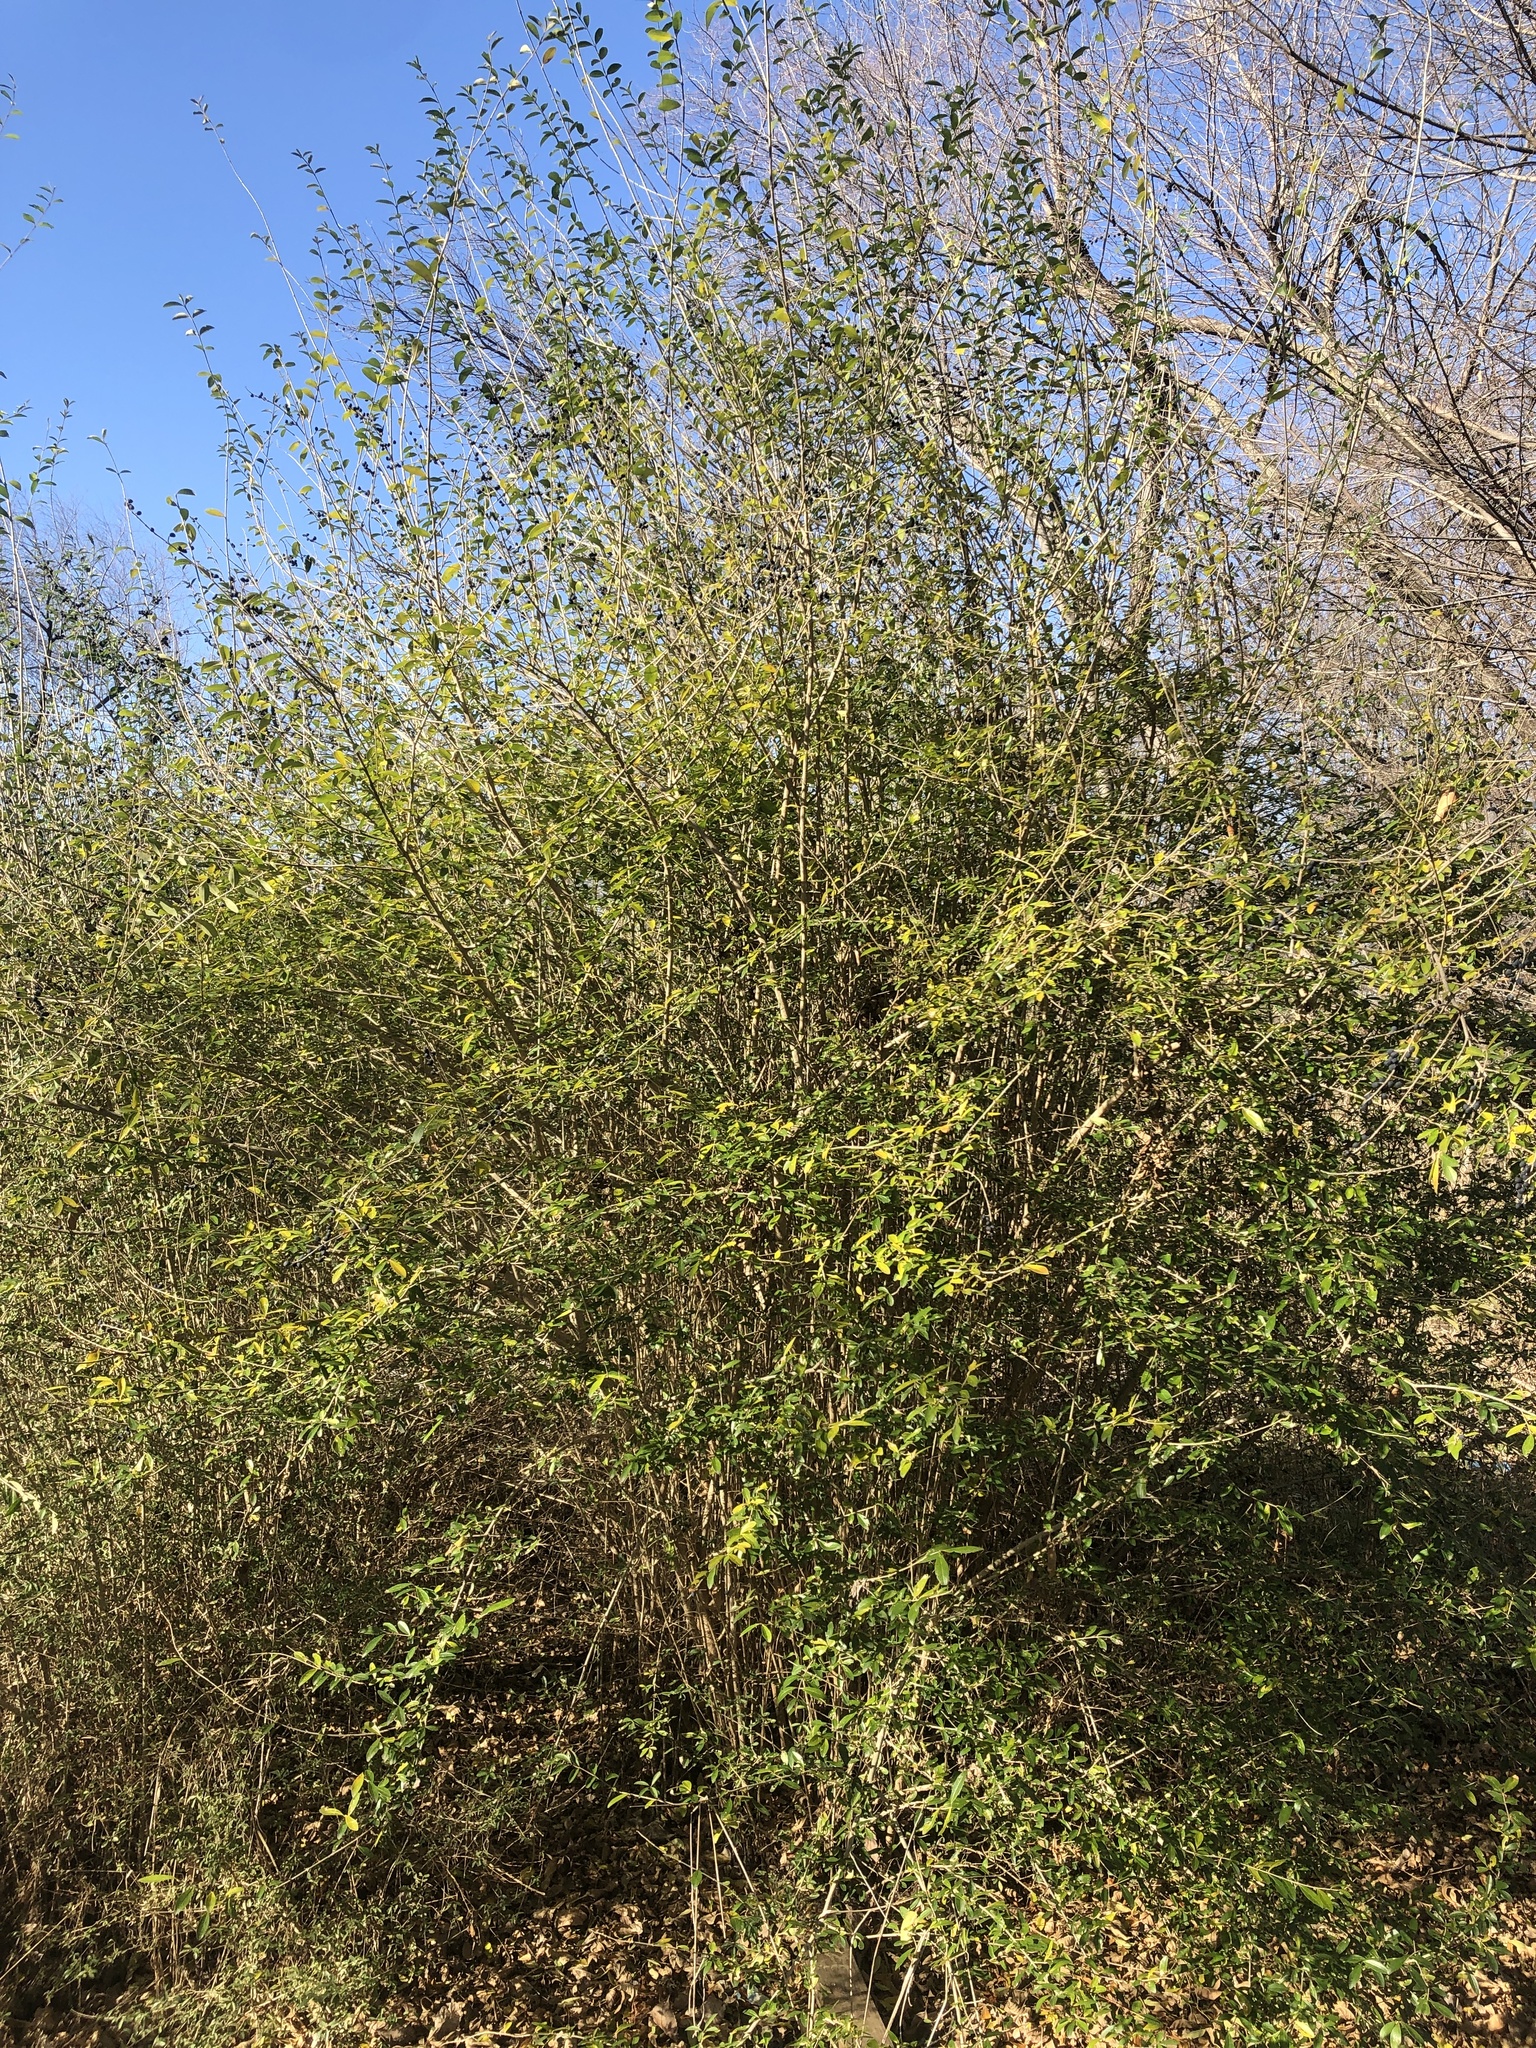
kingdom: Plantae
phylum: Tracheophyta
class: Magnoliopsida
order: Lamiales
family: Oleaceae
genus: Ligustrum
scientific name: Ligustrum quihoui
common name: Waxyleaf privet
